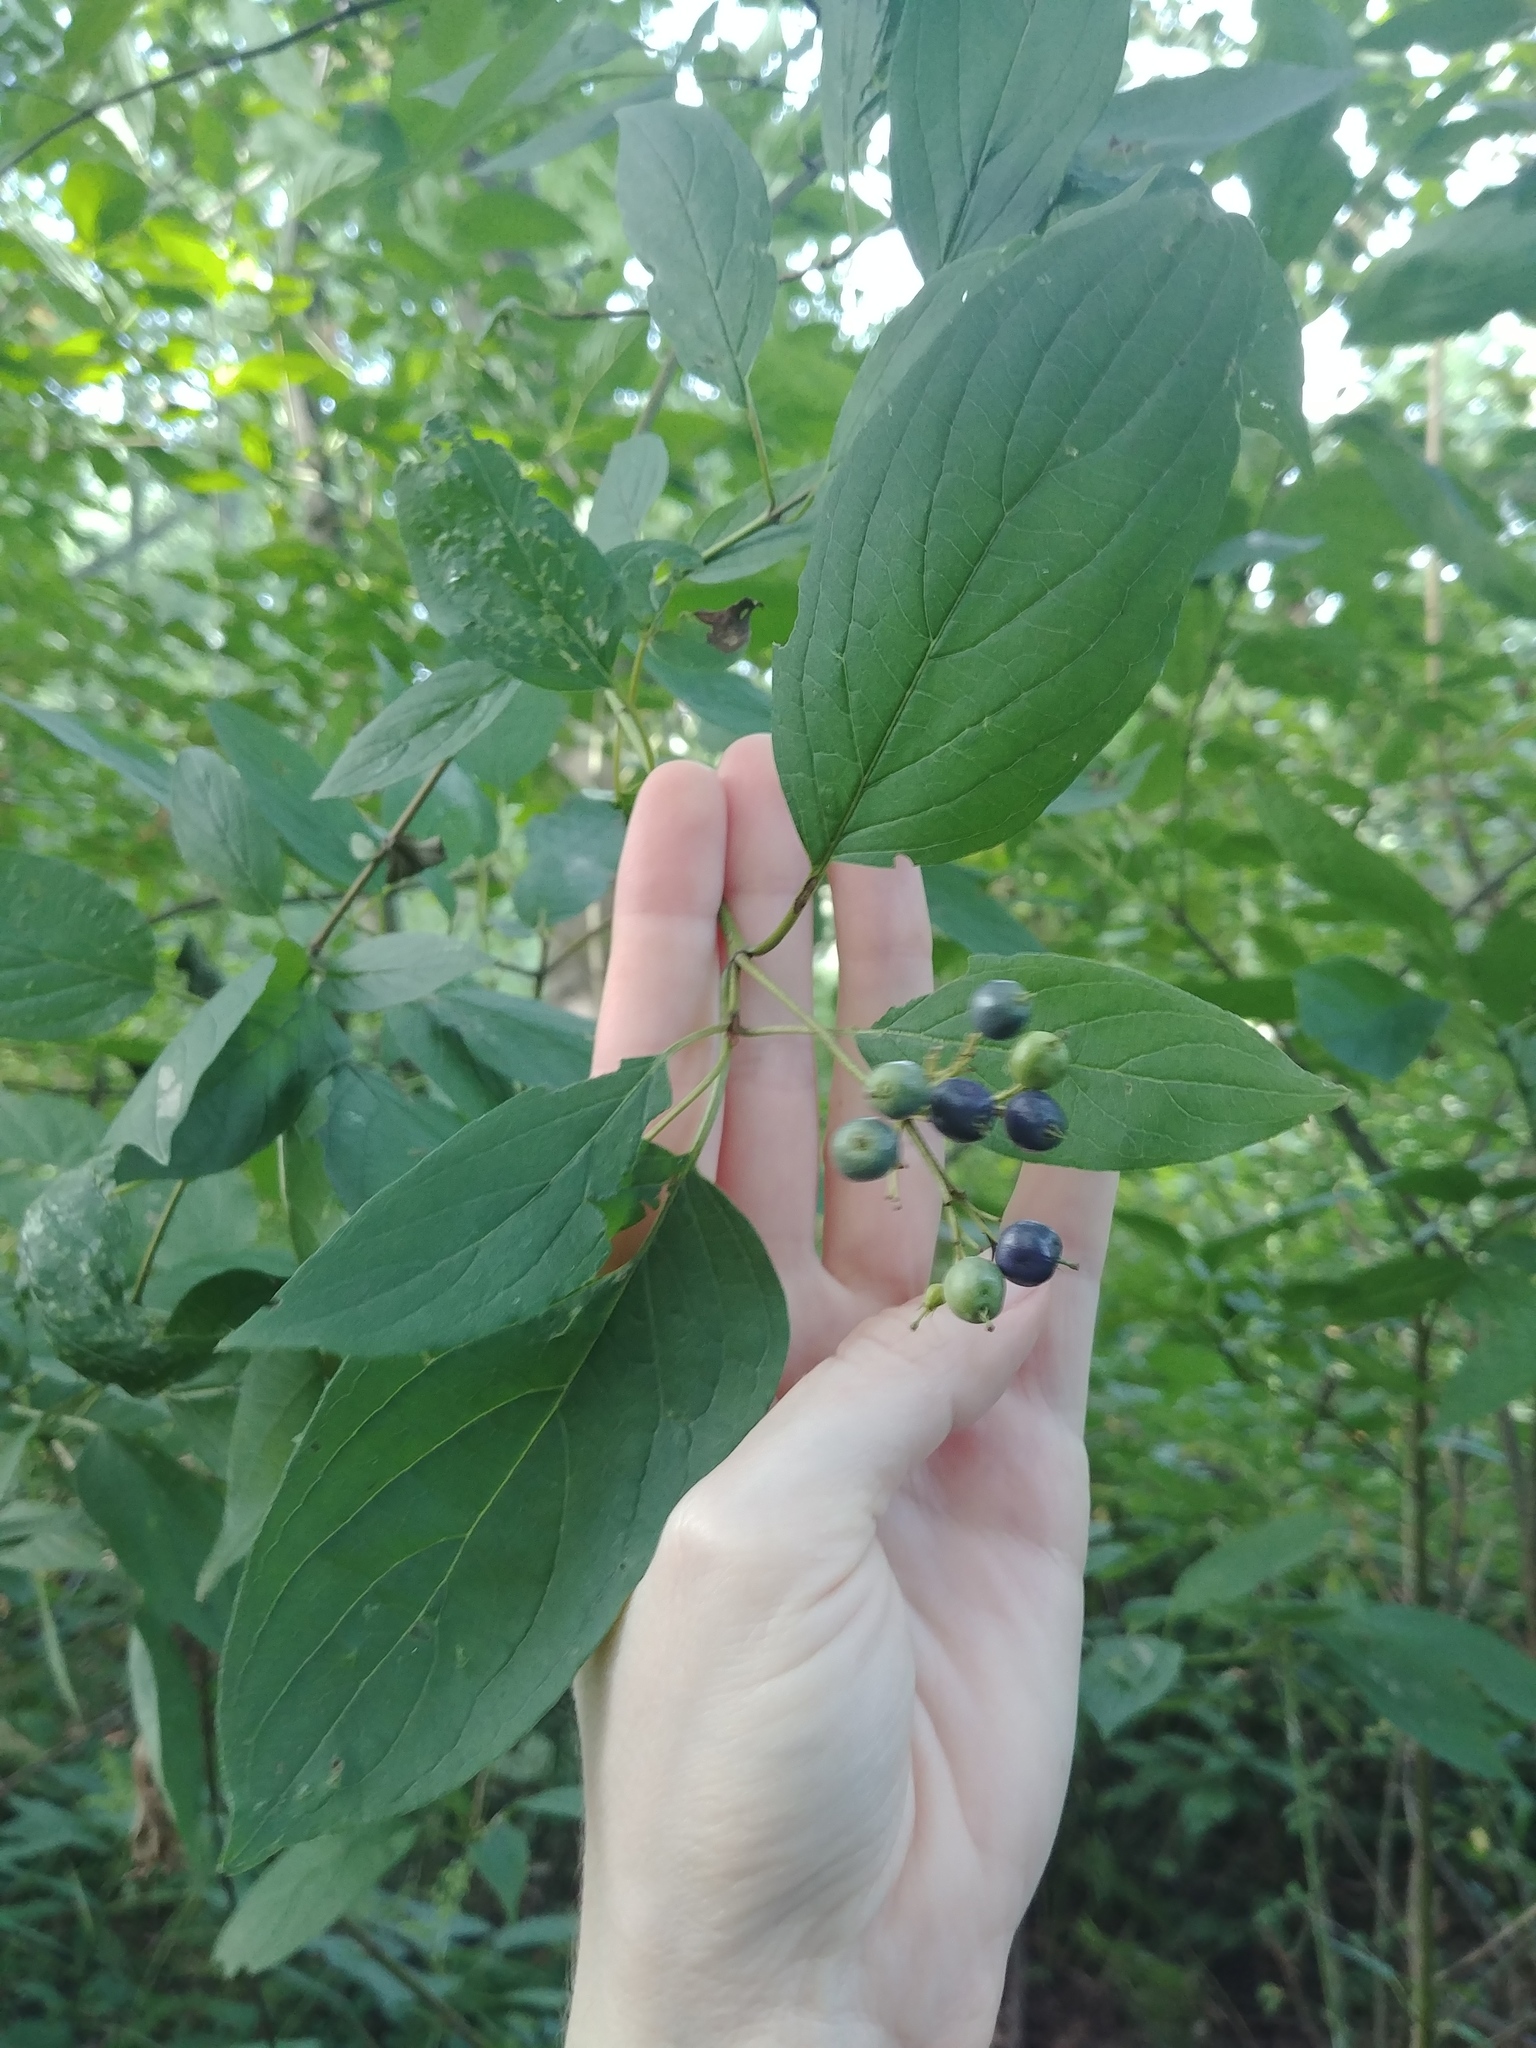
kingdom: Plantae
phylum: Tracheophyta
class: Magnoliopsida
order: Cornales
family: Cornaceae
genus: Cornus
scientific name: Cornus amomum
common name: Silky dogwood
